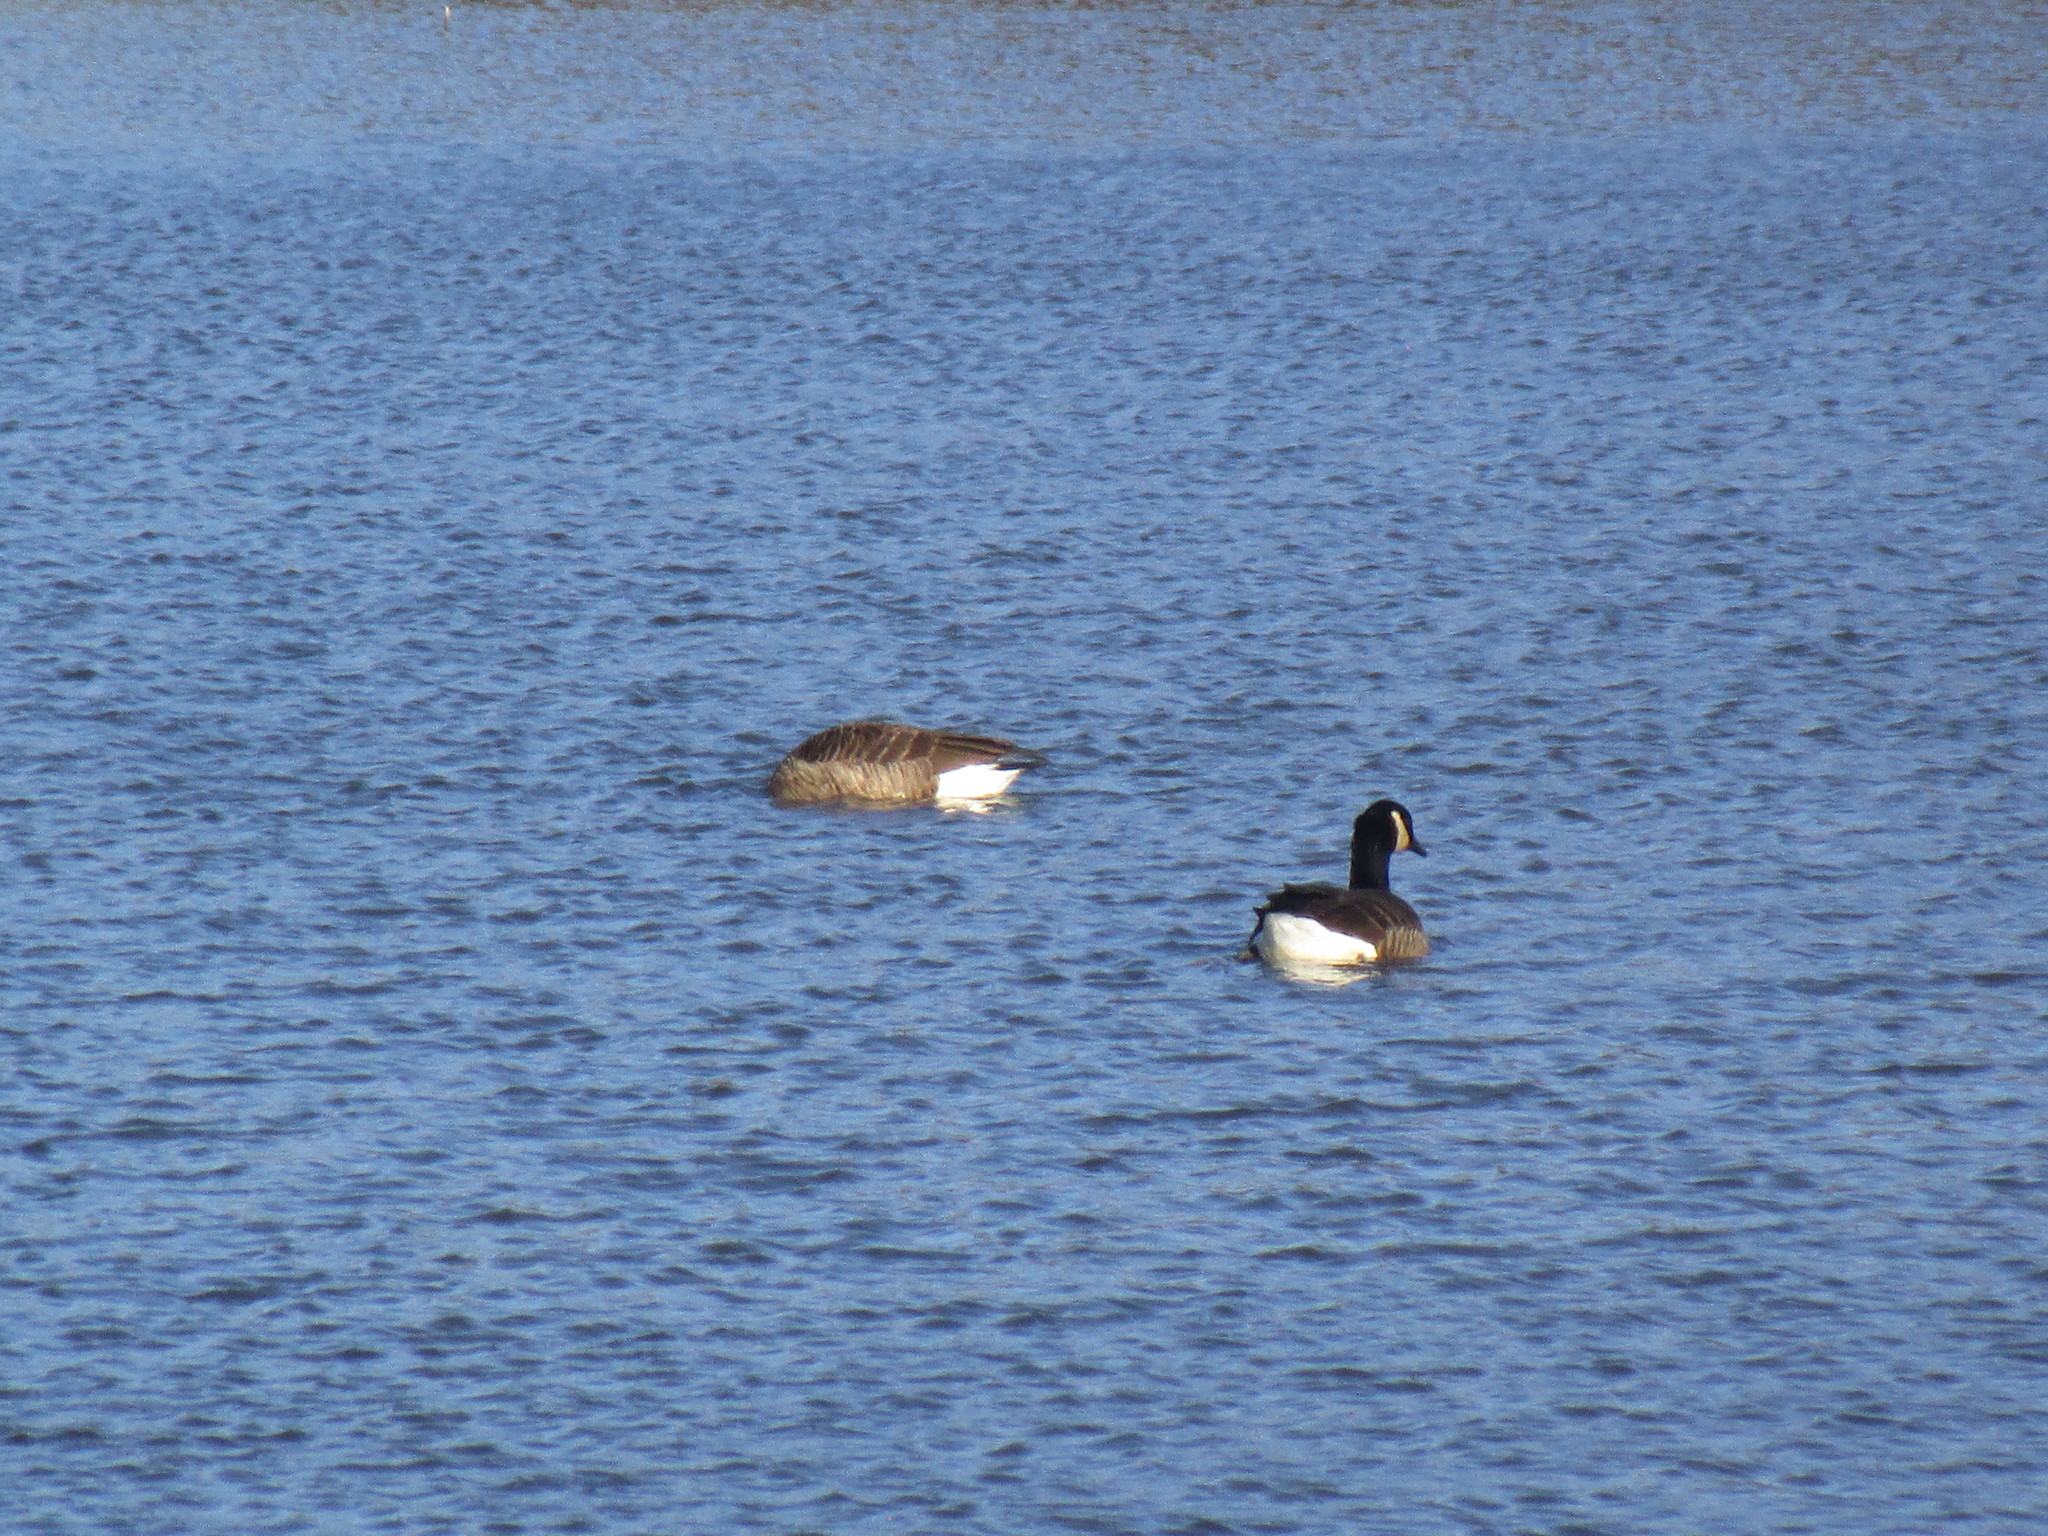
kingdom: Animalia
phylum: Chordata
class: Aves
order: Anseriformes
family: Anatidae
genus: Branta
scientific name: Branta canadensis
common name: Canada goose
